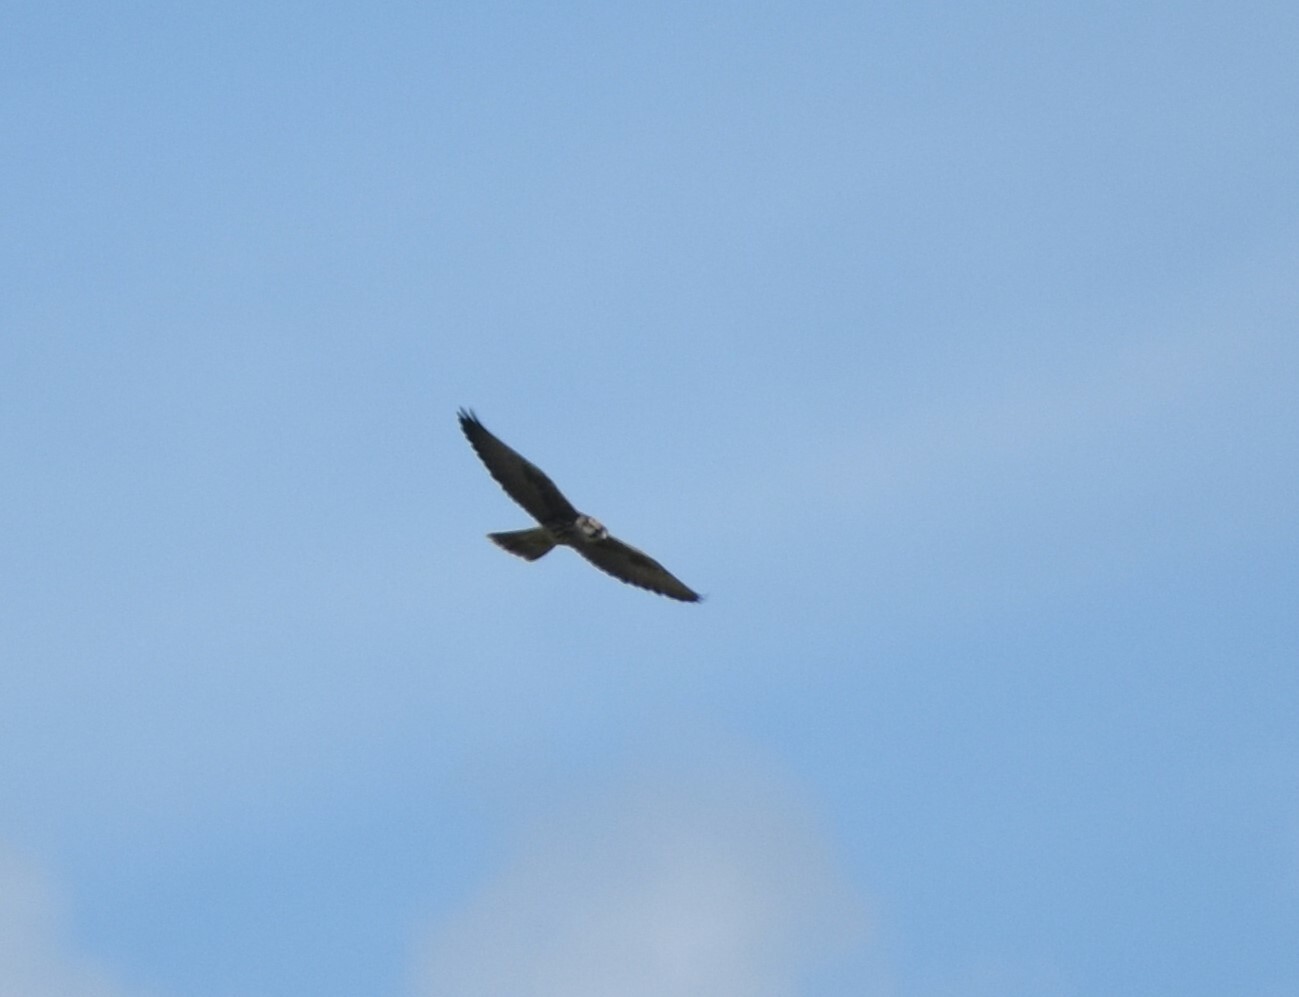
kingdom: Animalia
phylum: Chordata
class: Aves
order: Falconiformes
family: Falconidae
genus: Falco
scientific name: Falco biarmicus
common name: Lanner falcon
